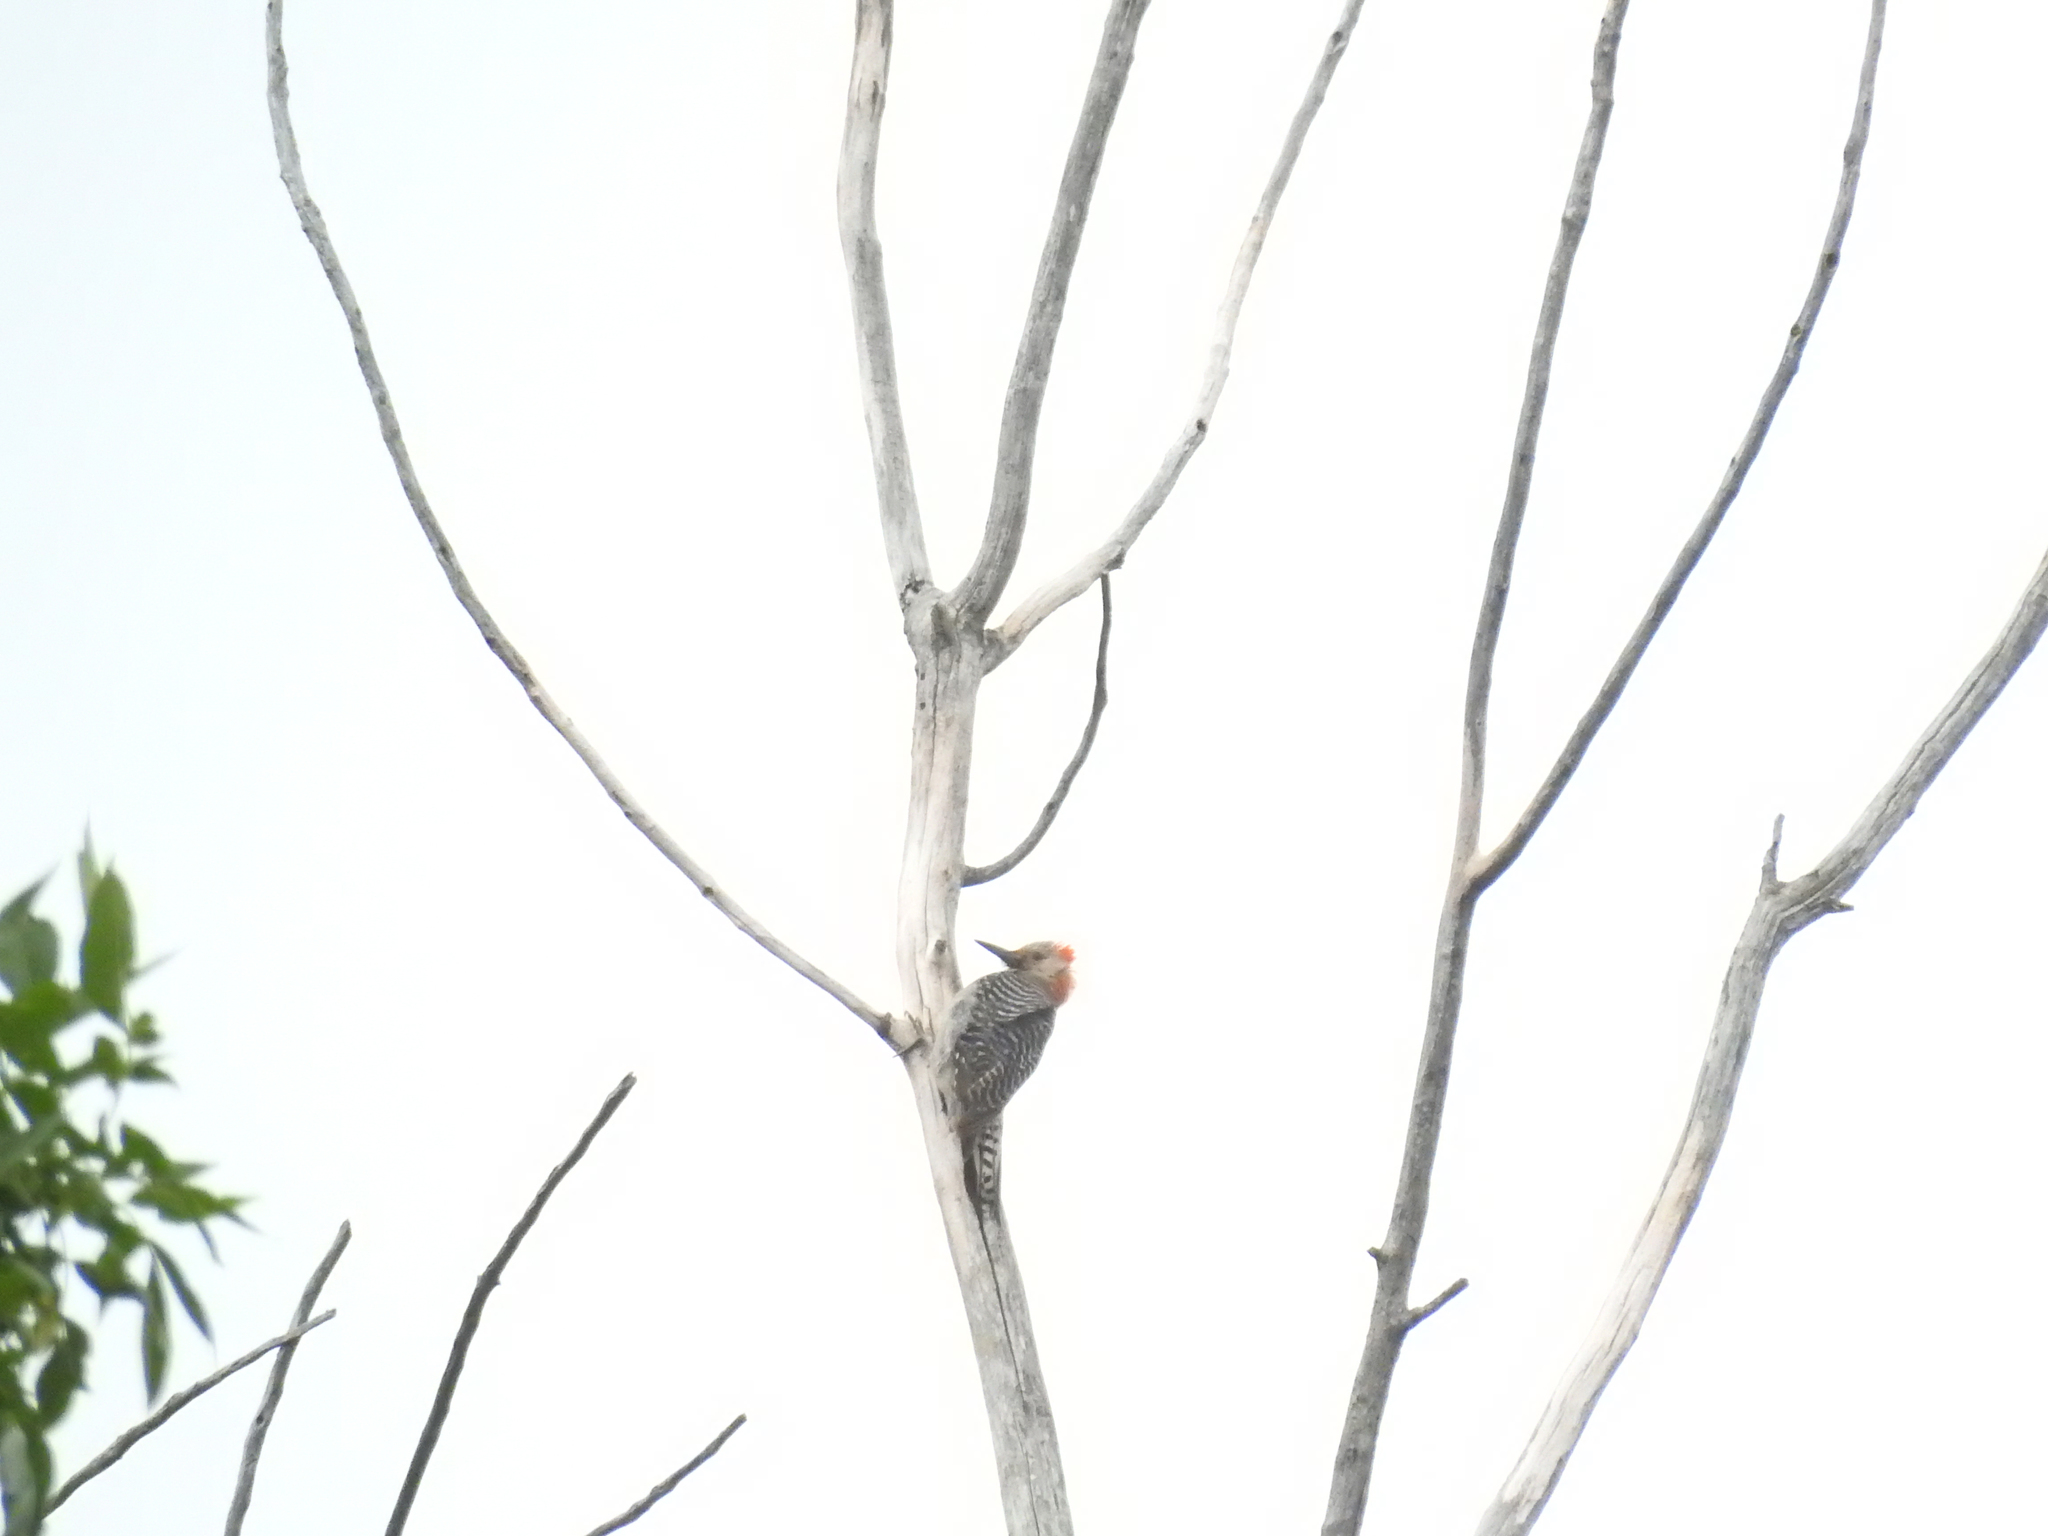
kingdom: Animalia
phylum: Chordata
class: Aves
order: Piciformes
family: Picidae
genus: Melanerpes
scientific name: Melanerpes carolinus
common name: Red-bellied woodpecker
